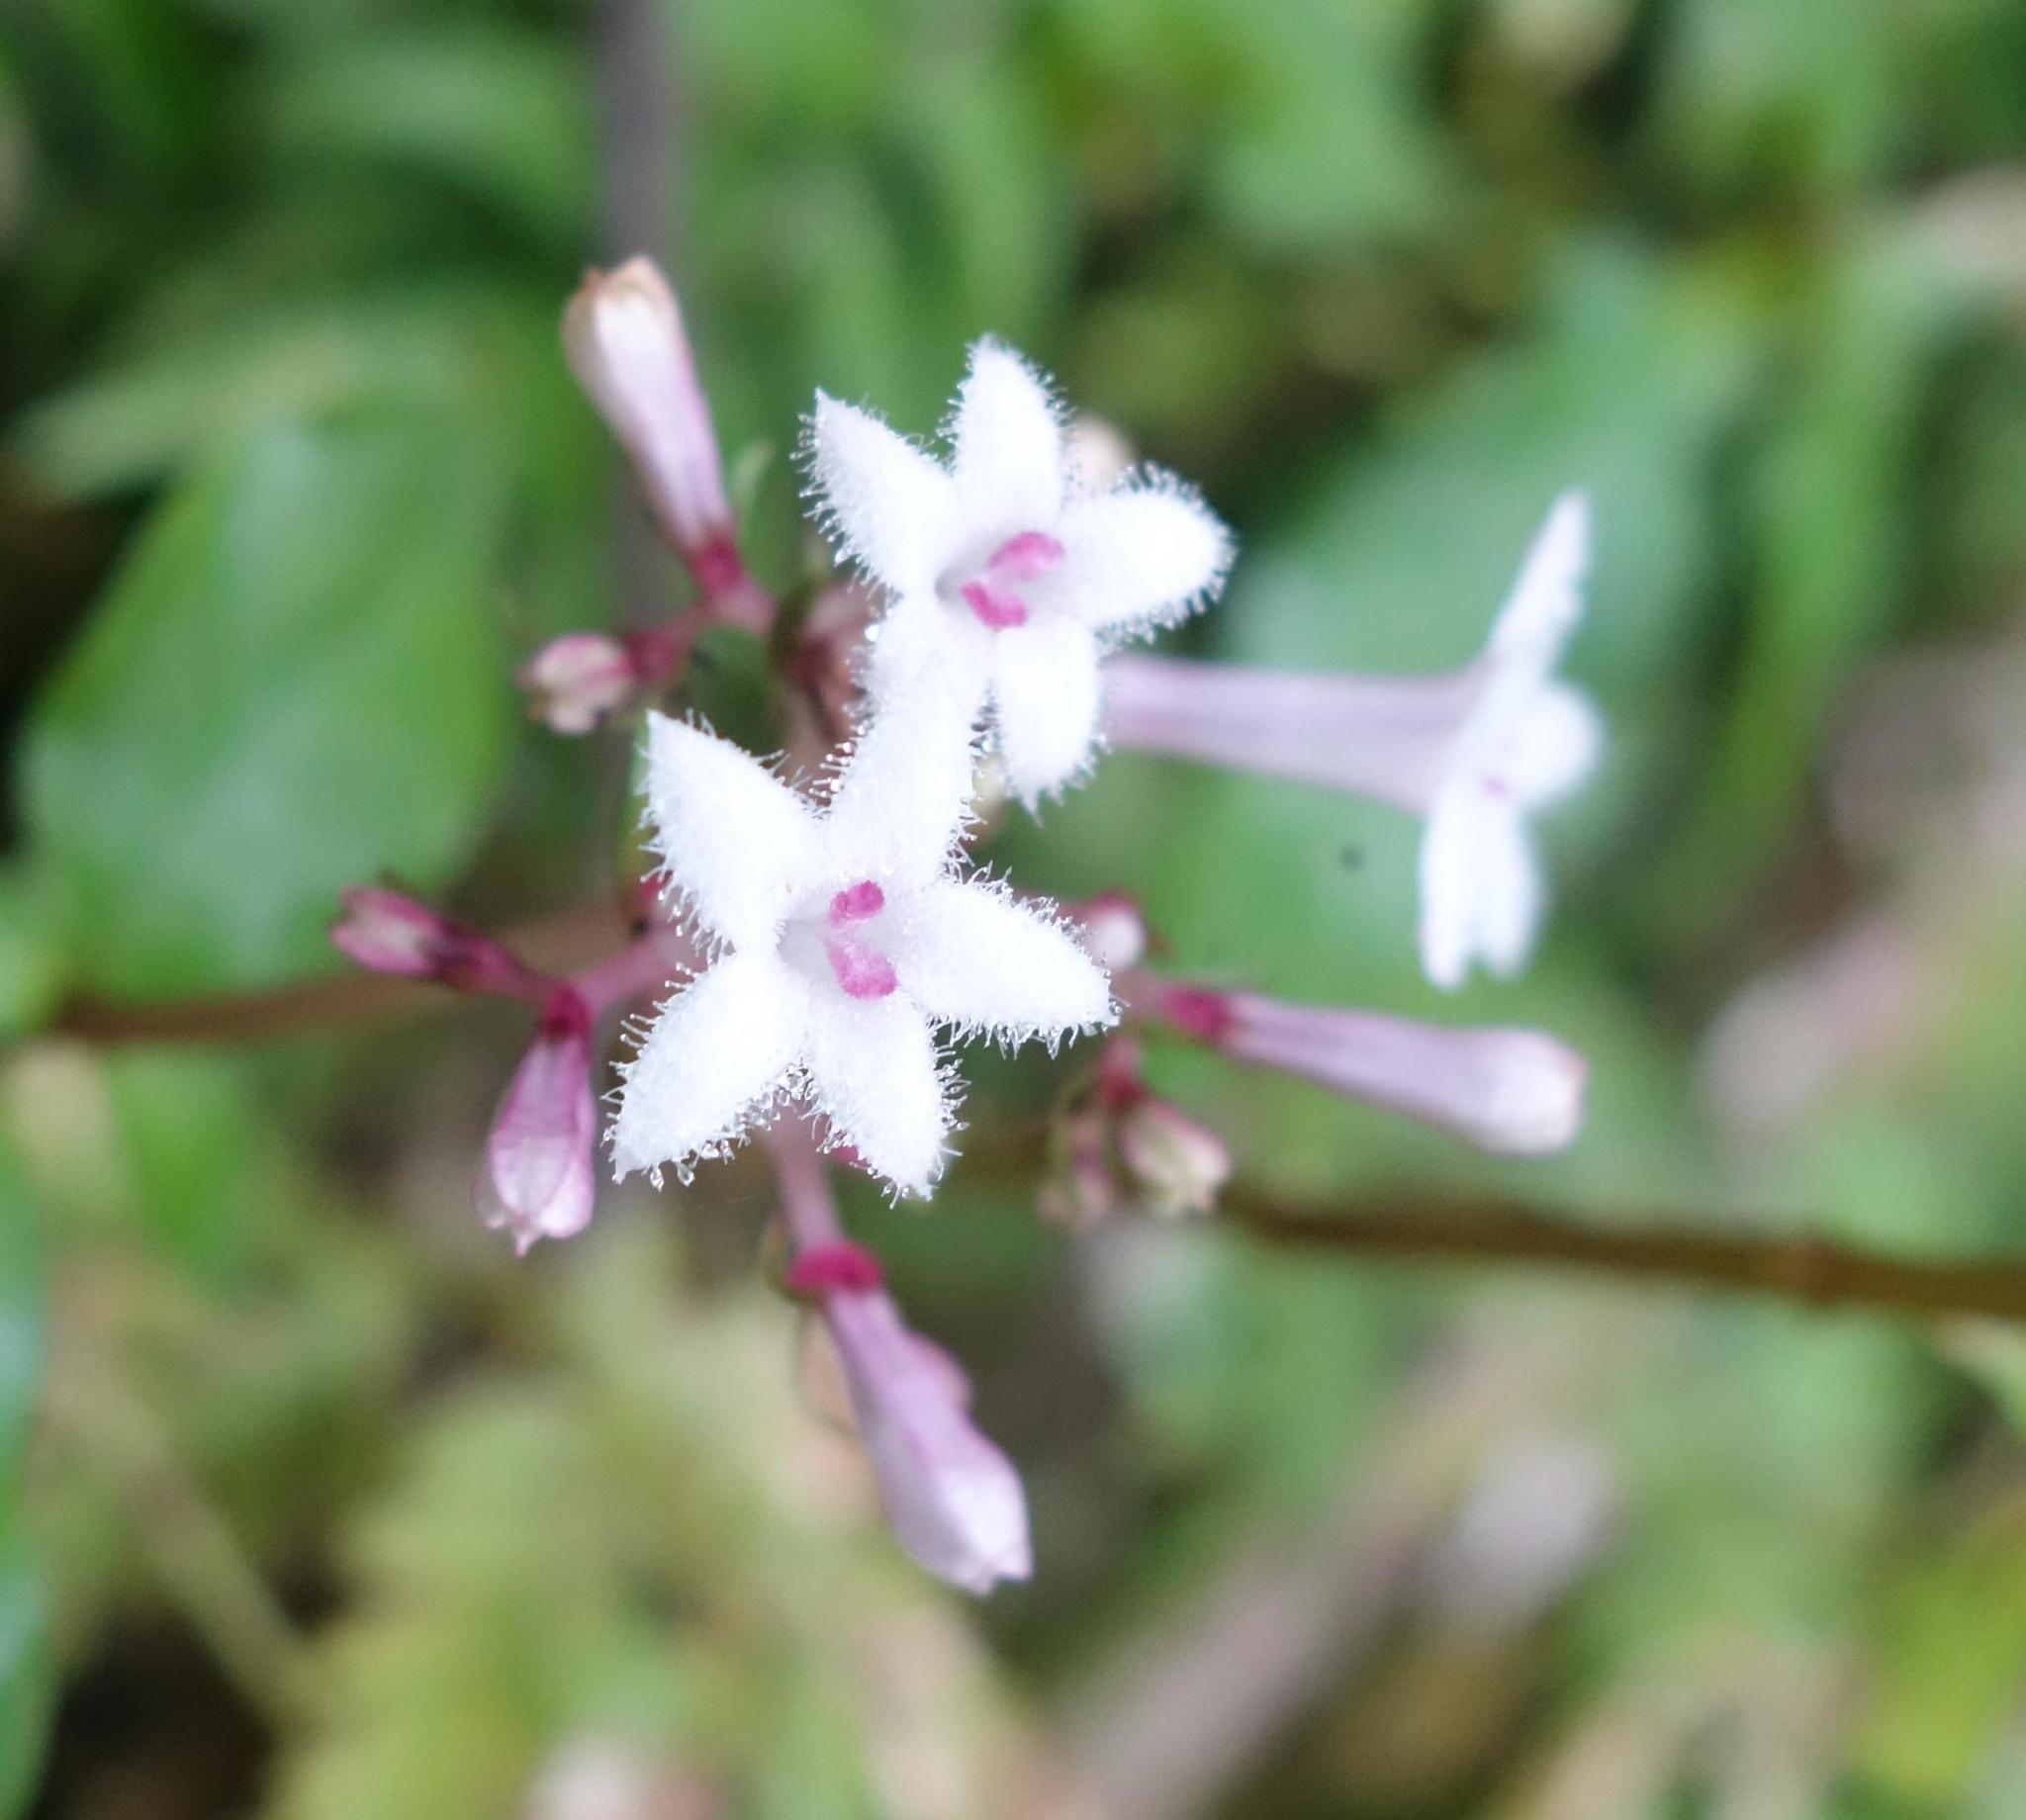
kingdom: Plantae
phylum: Tracheophyta
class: Magnoliopsida
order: Gentianales
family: Rubiaceae
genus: Ophiorrhiza
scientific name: Ophiorrhiza japonica
